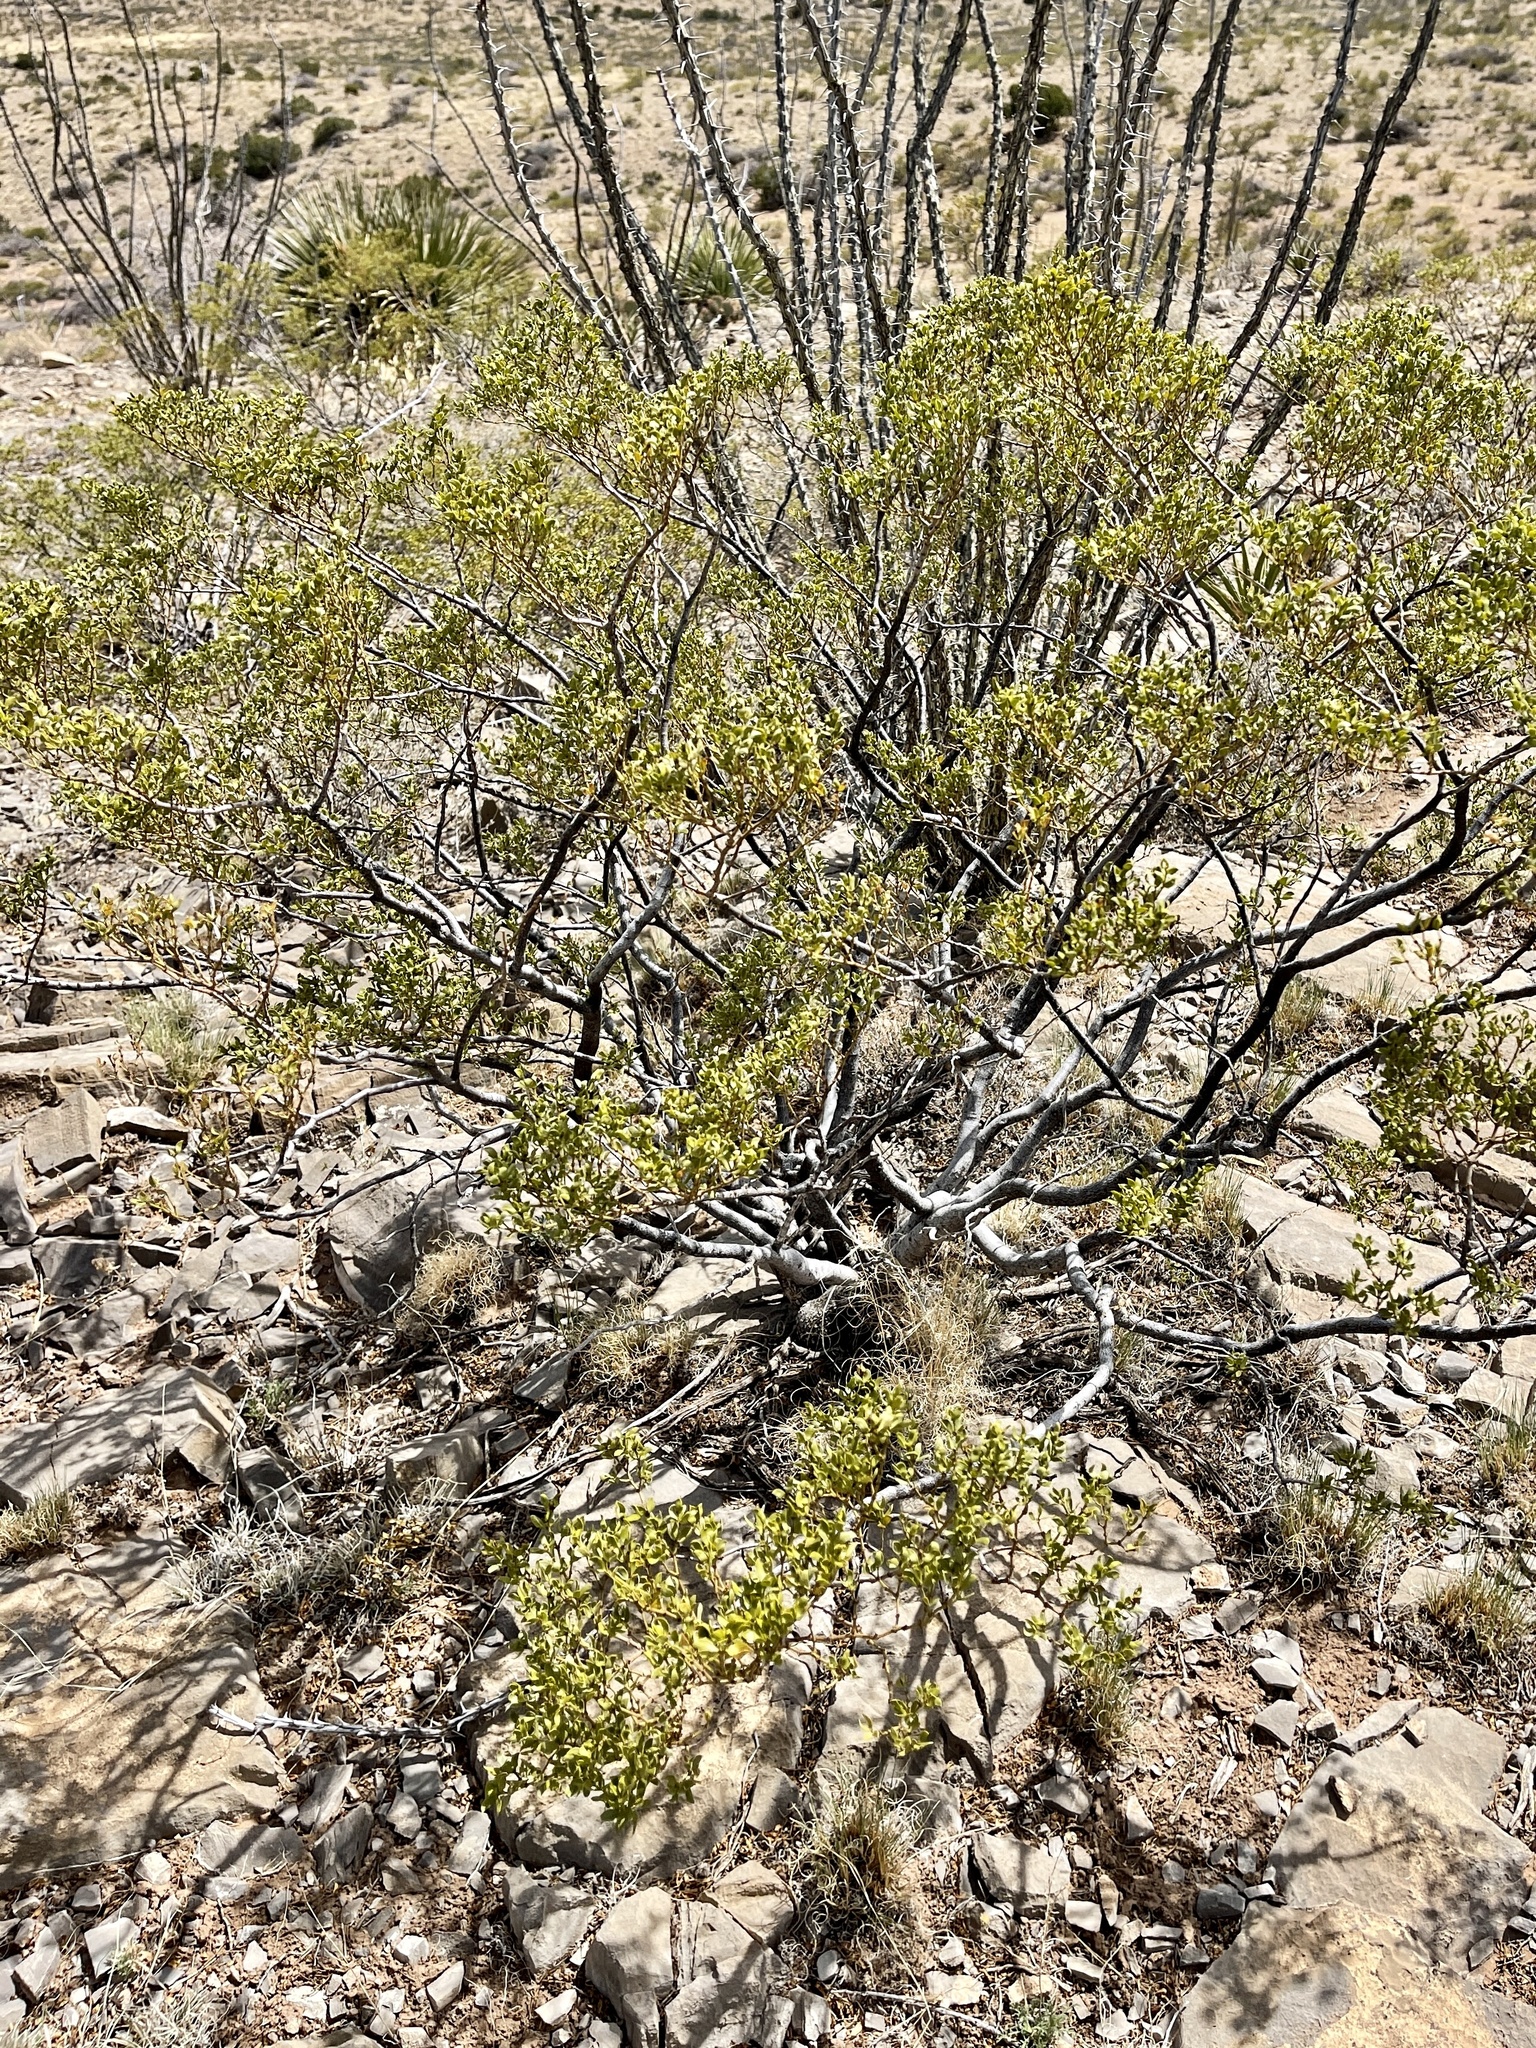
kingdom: Plantae
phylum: Tracheophyta
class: Magnoliopsida
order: Zygophyllales
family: Zygophyllaceae
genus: Larrea
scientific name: Larrea tridentata
